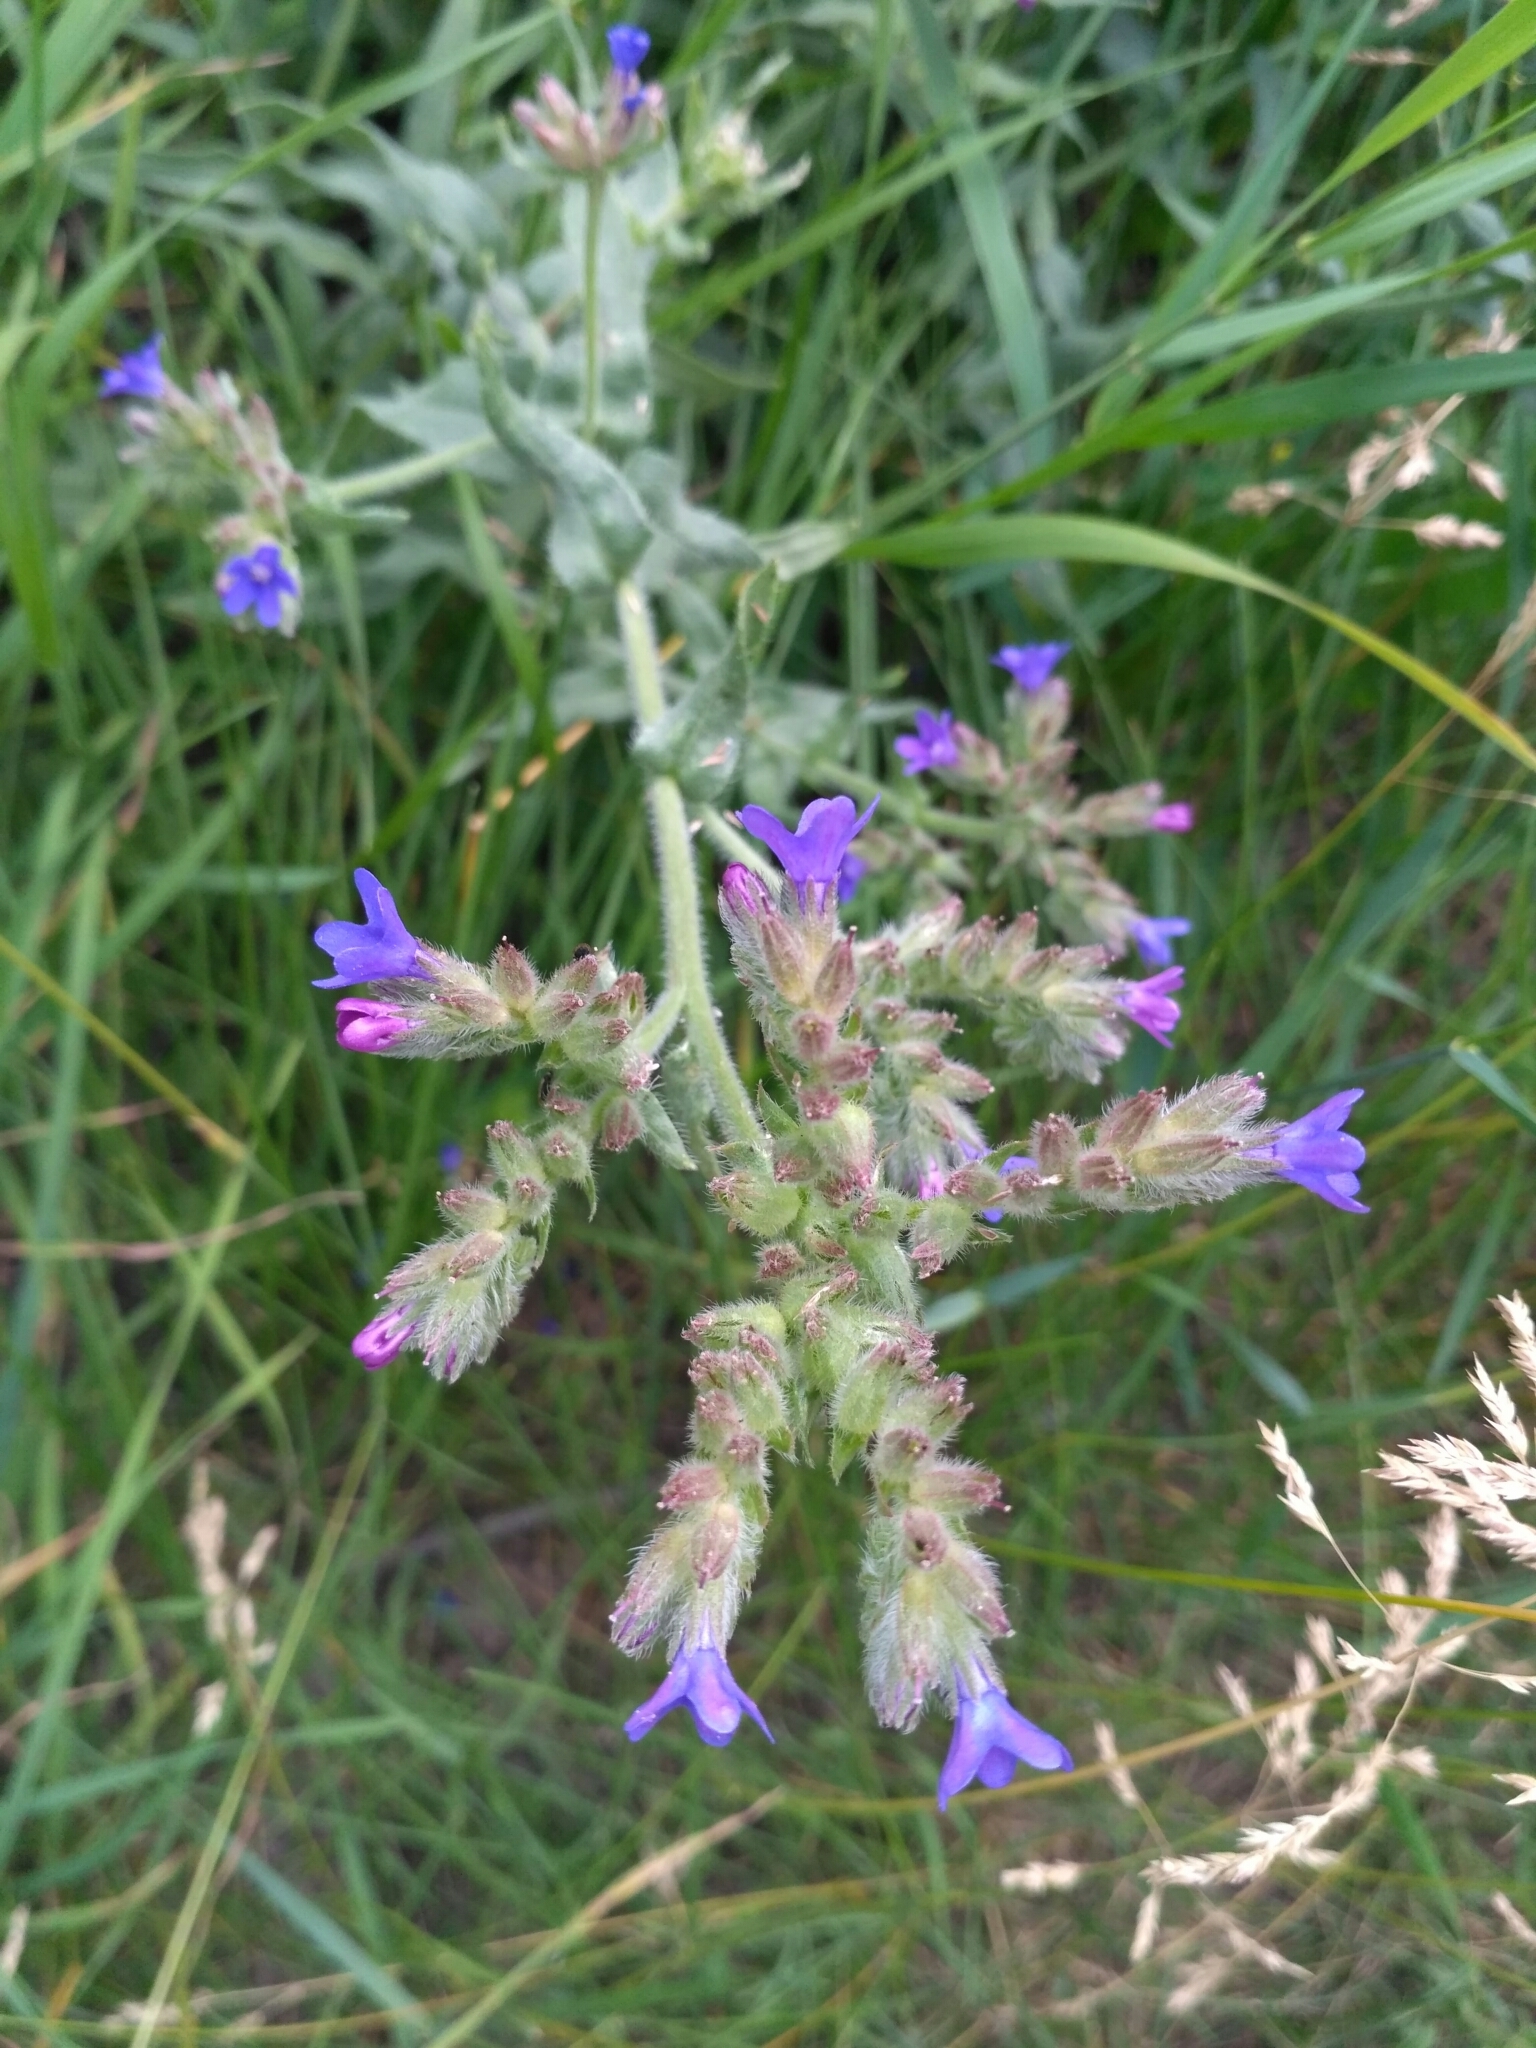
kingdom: Plantae
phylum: Tracheophyta
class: Magnoliopsida
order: Boraginales
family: Boraginaceae
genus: Anchusa
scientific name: Anchusa officinalis
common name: Alkanet
